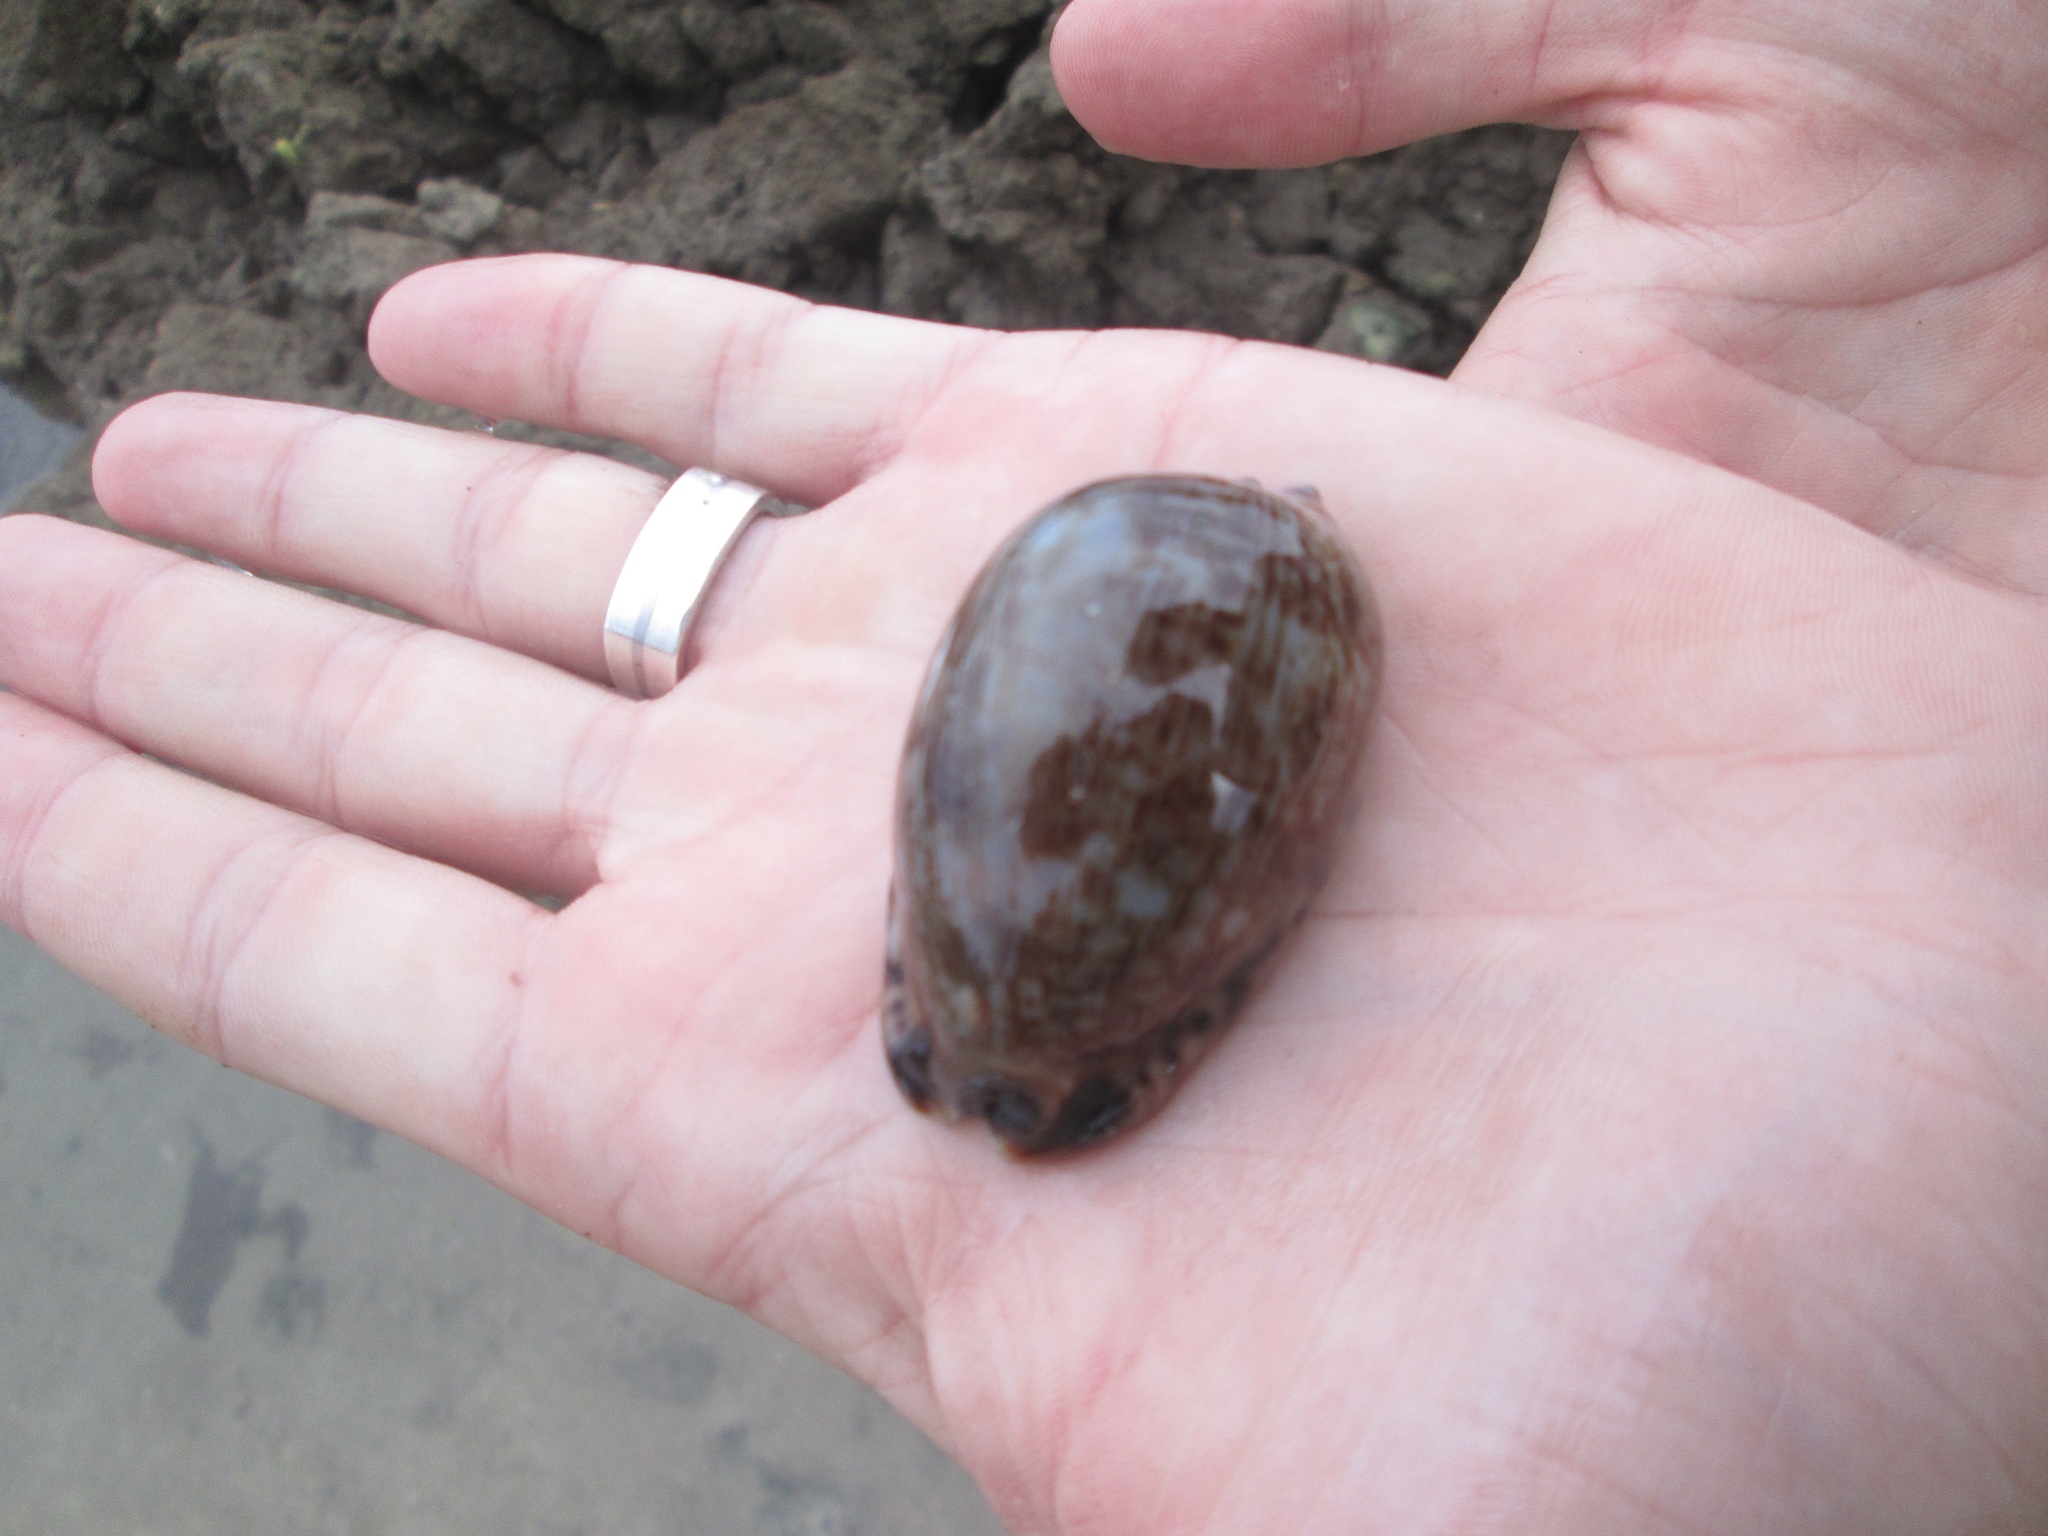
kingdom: Animalia
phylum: Mollusca
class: Gastropoda
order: Littorinimorpha
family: Cypraeidae
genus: Mauritia
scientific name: Mauritia arabica
